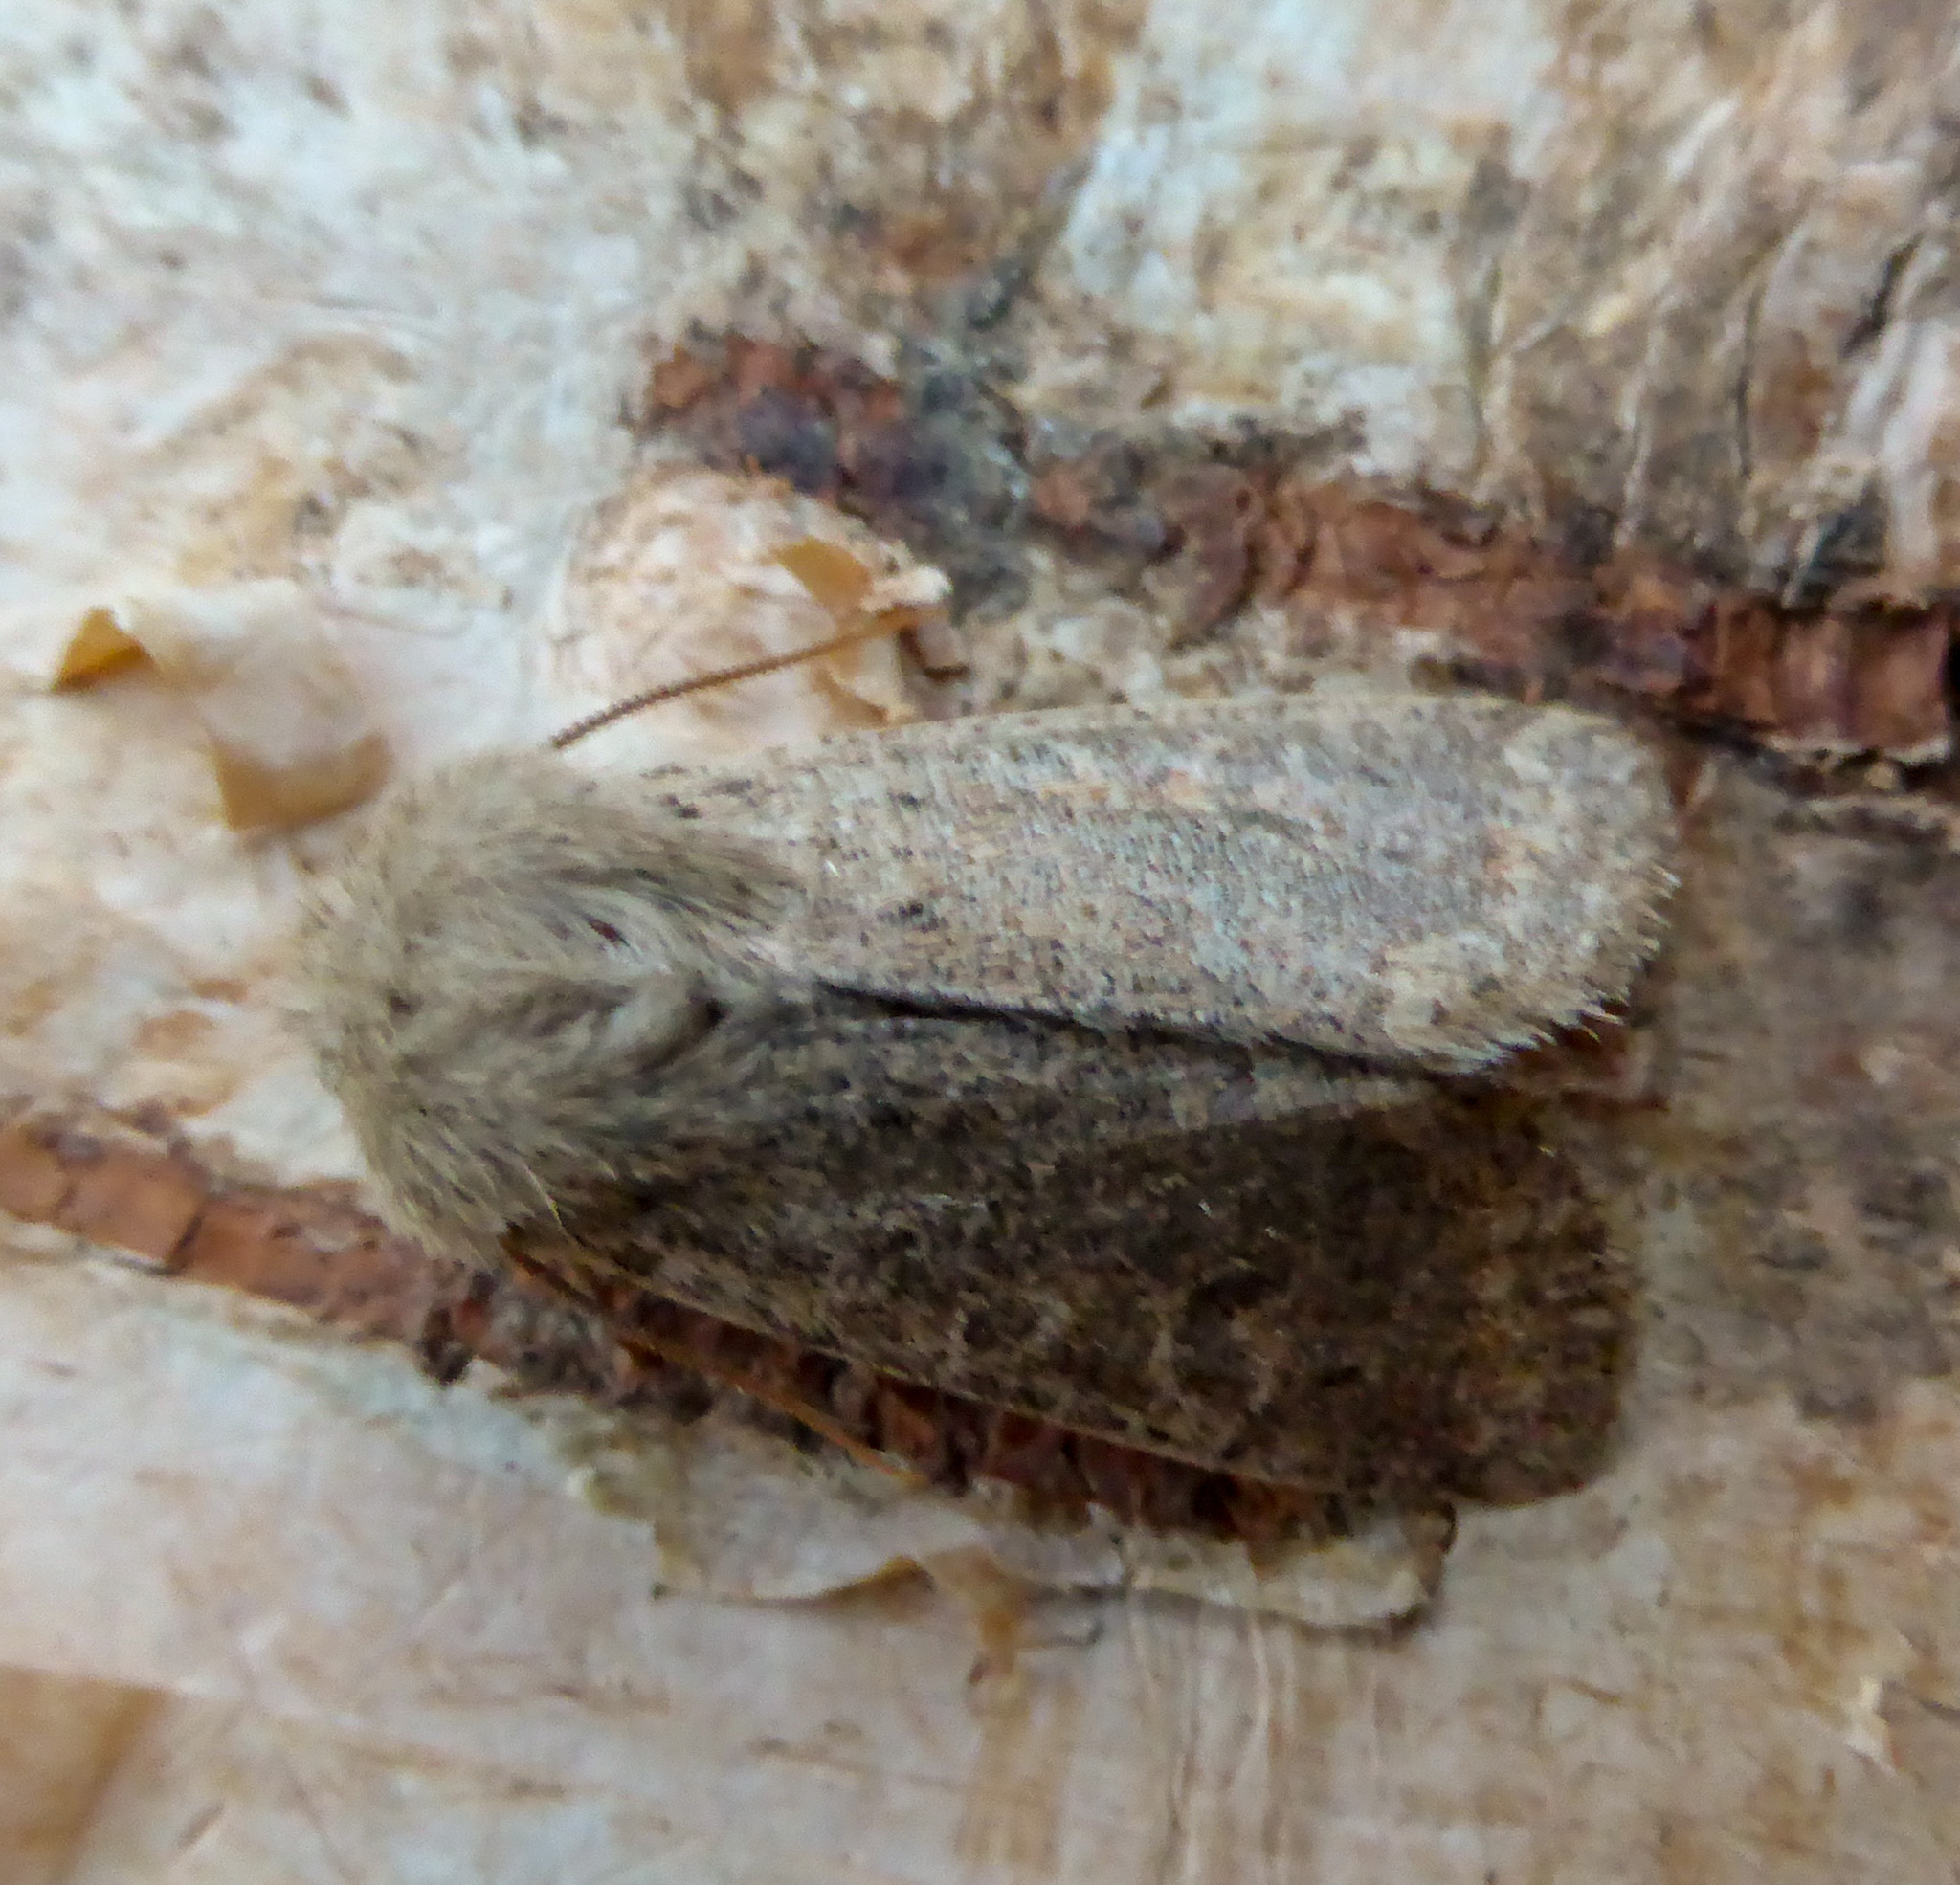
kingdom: Animalia
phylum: Arthropoda
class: Insecta
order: Lepidoptera
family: Noctuidae
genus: Orthosia
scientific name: Orthosia cruda
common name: Small quaker
